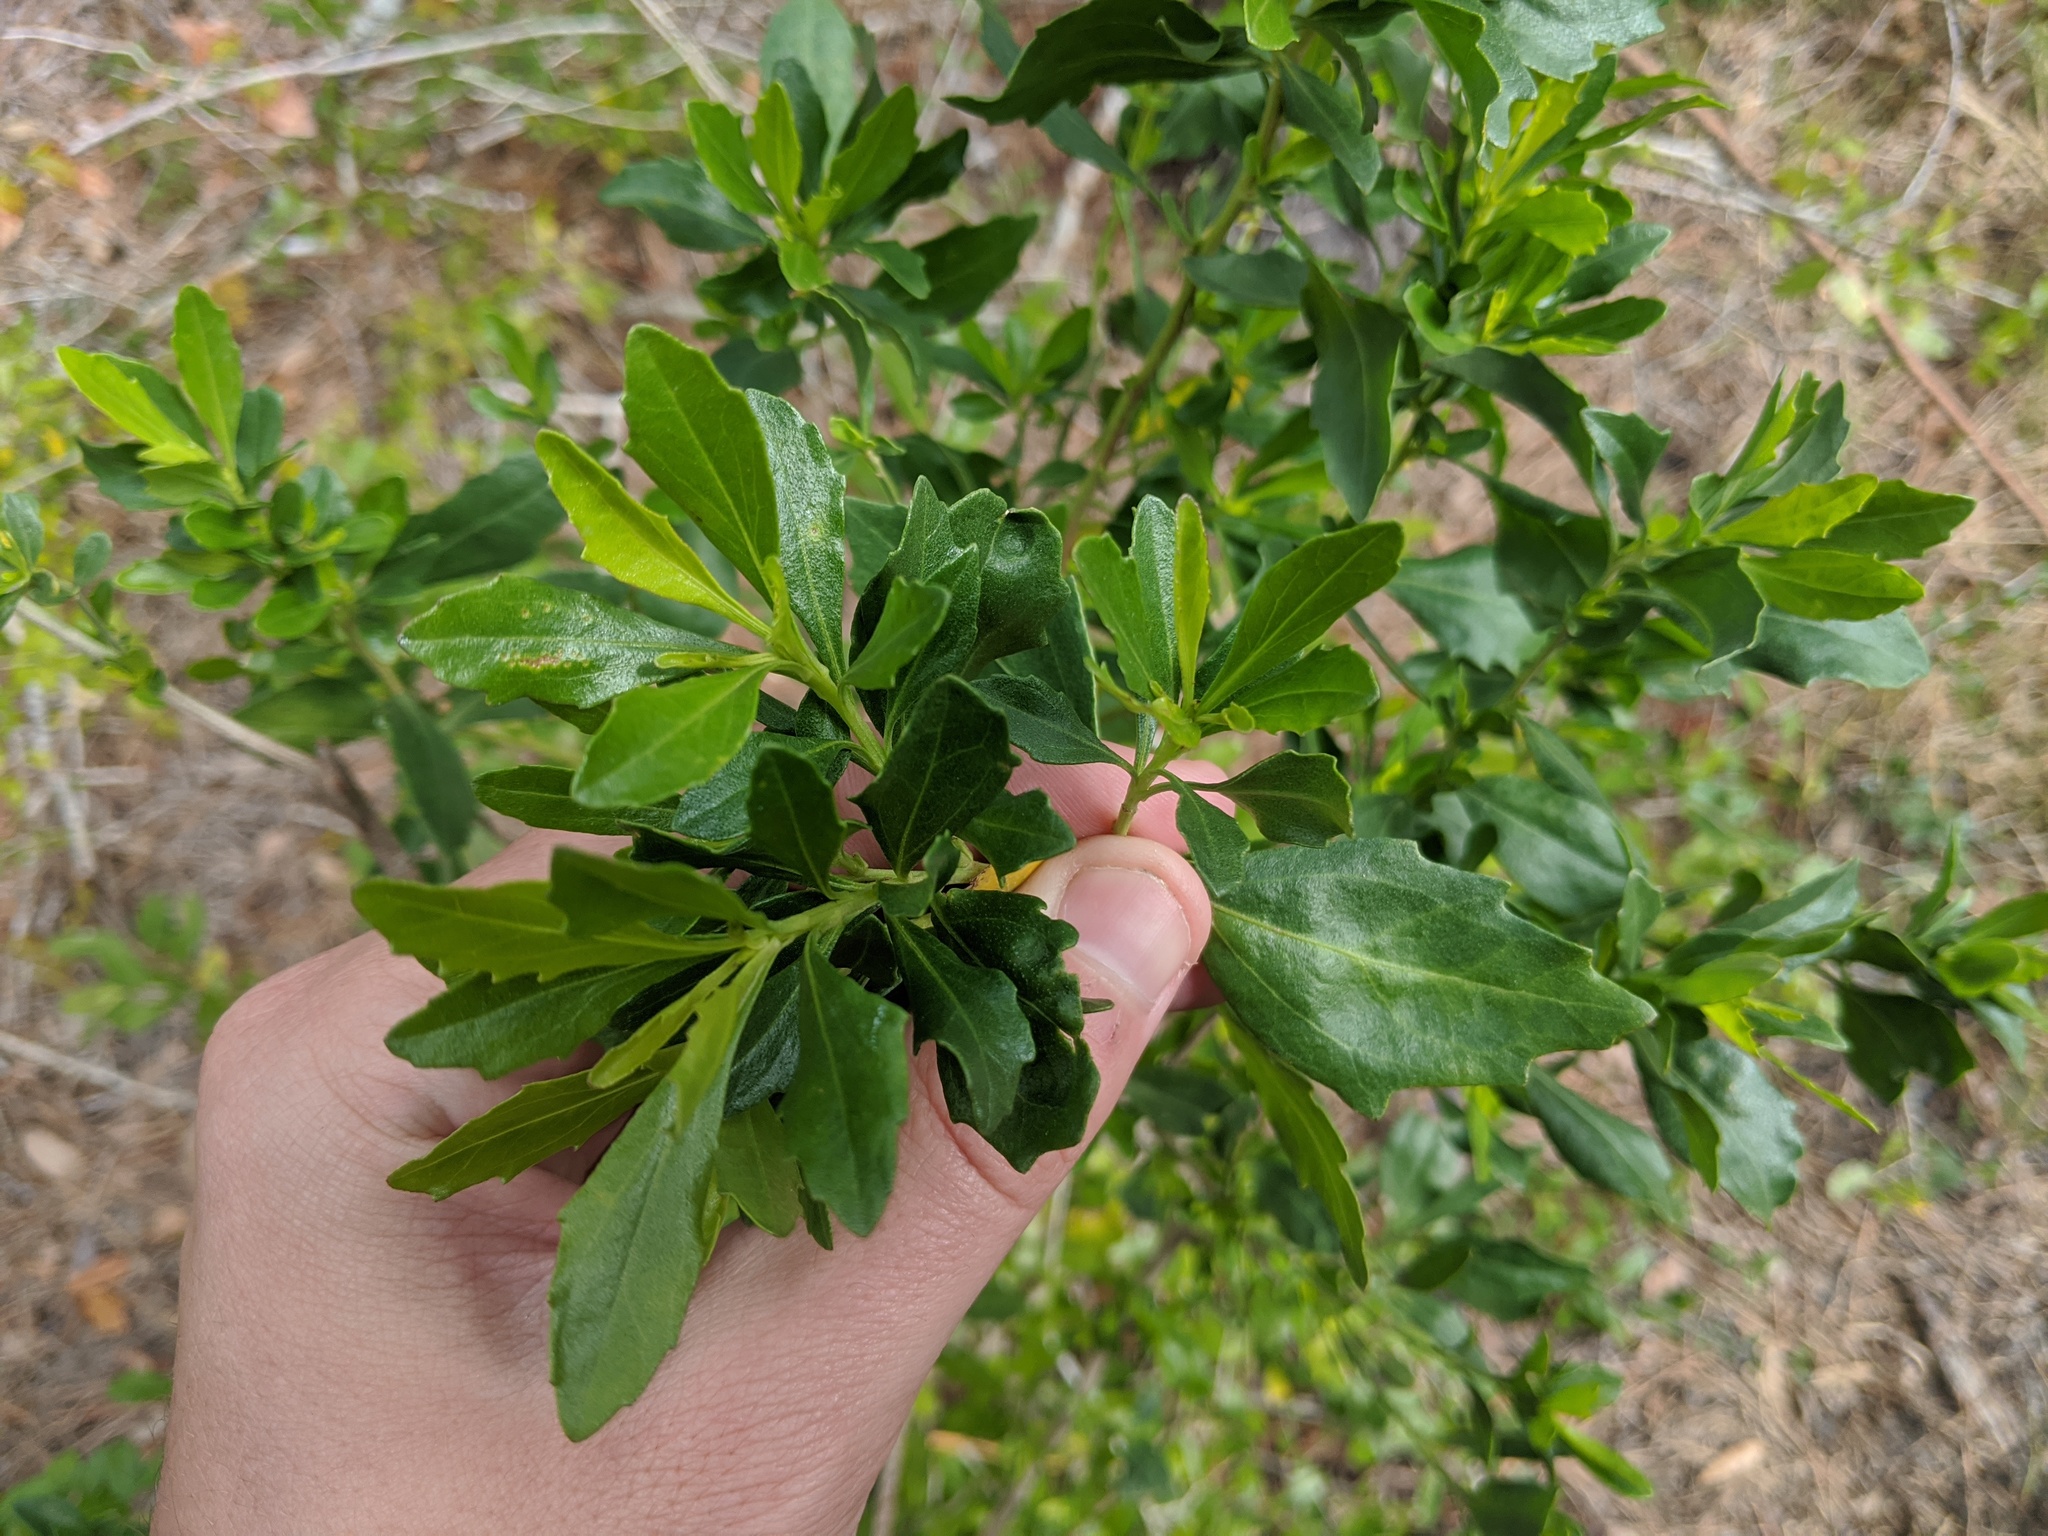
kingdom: Plantae
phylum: Tracheophyta
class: Magnoliopsida
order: Asterales
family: Asteraceae
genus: Baccharis
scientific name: Baccharis halimifolia
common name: Eastern baccharis
